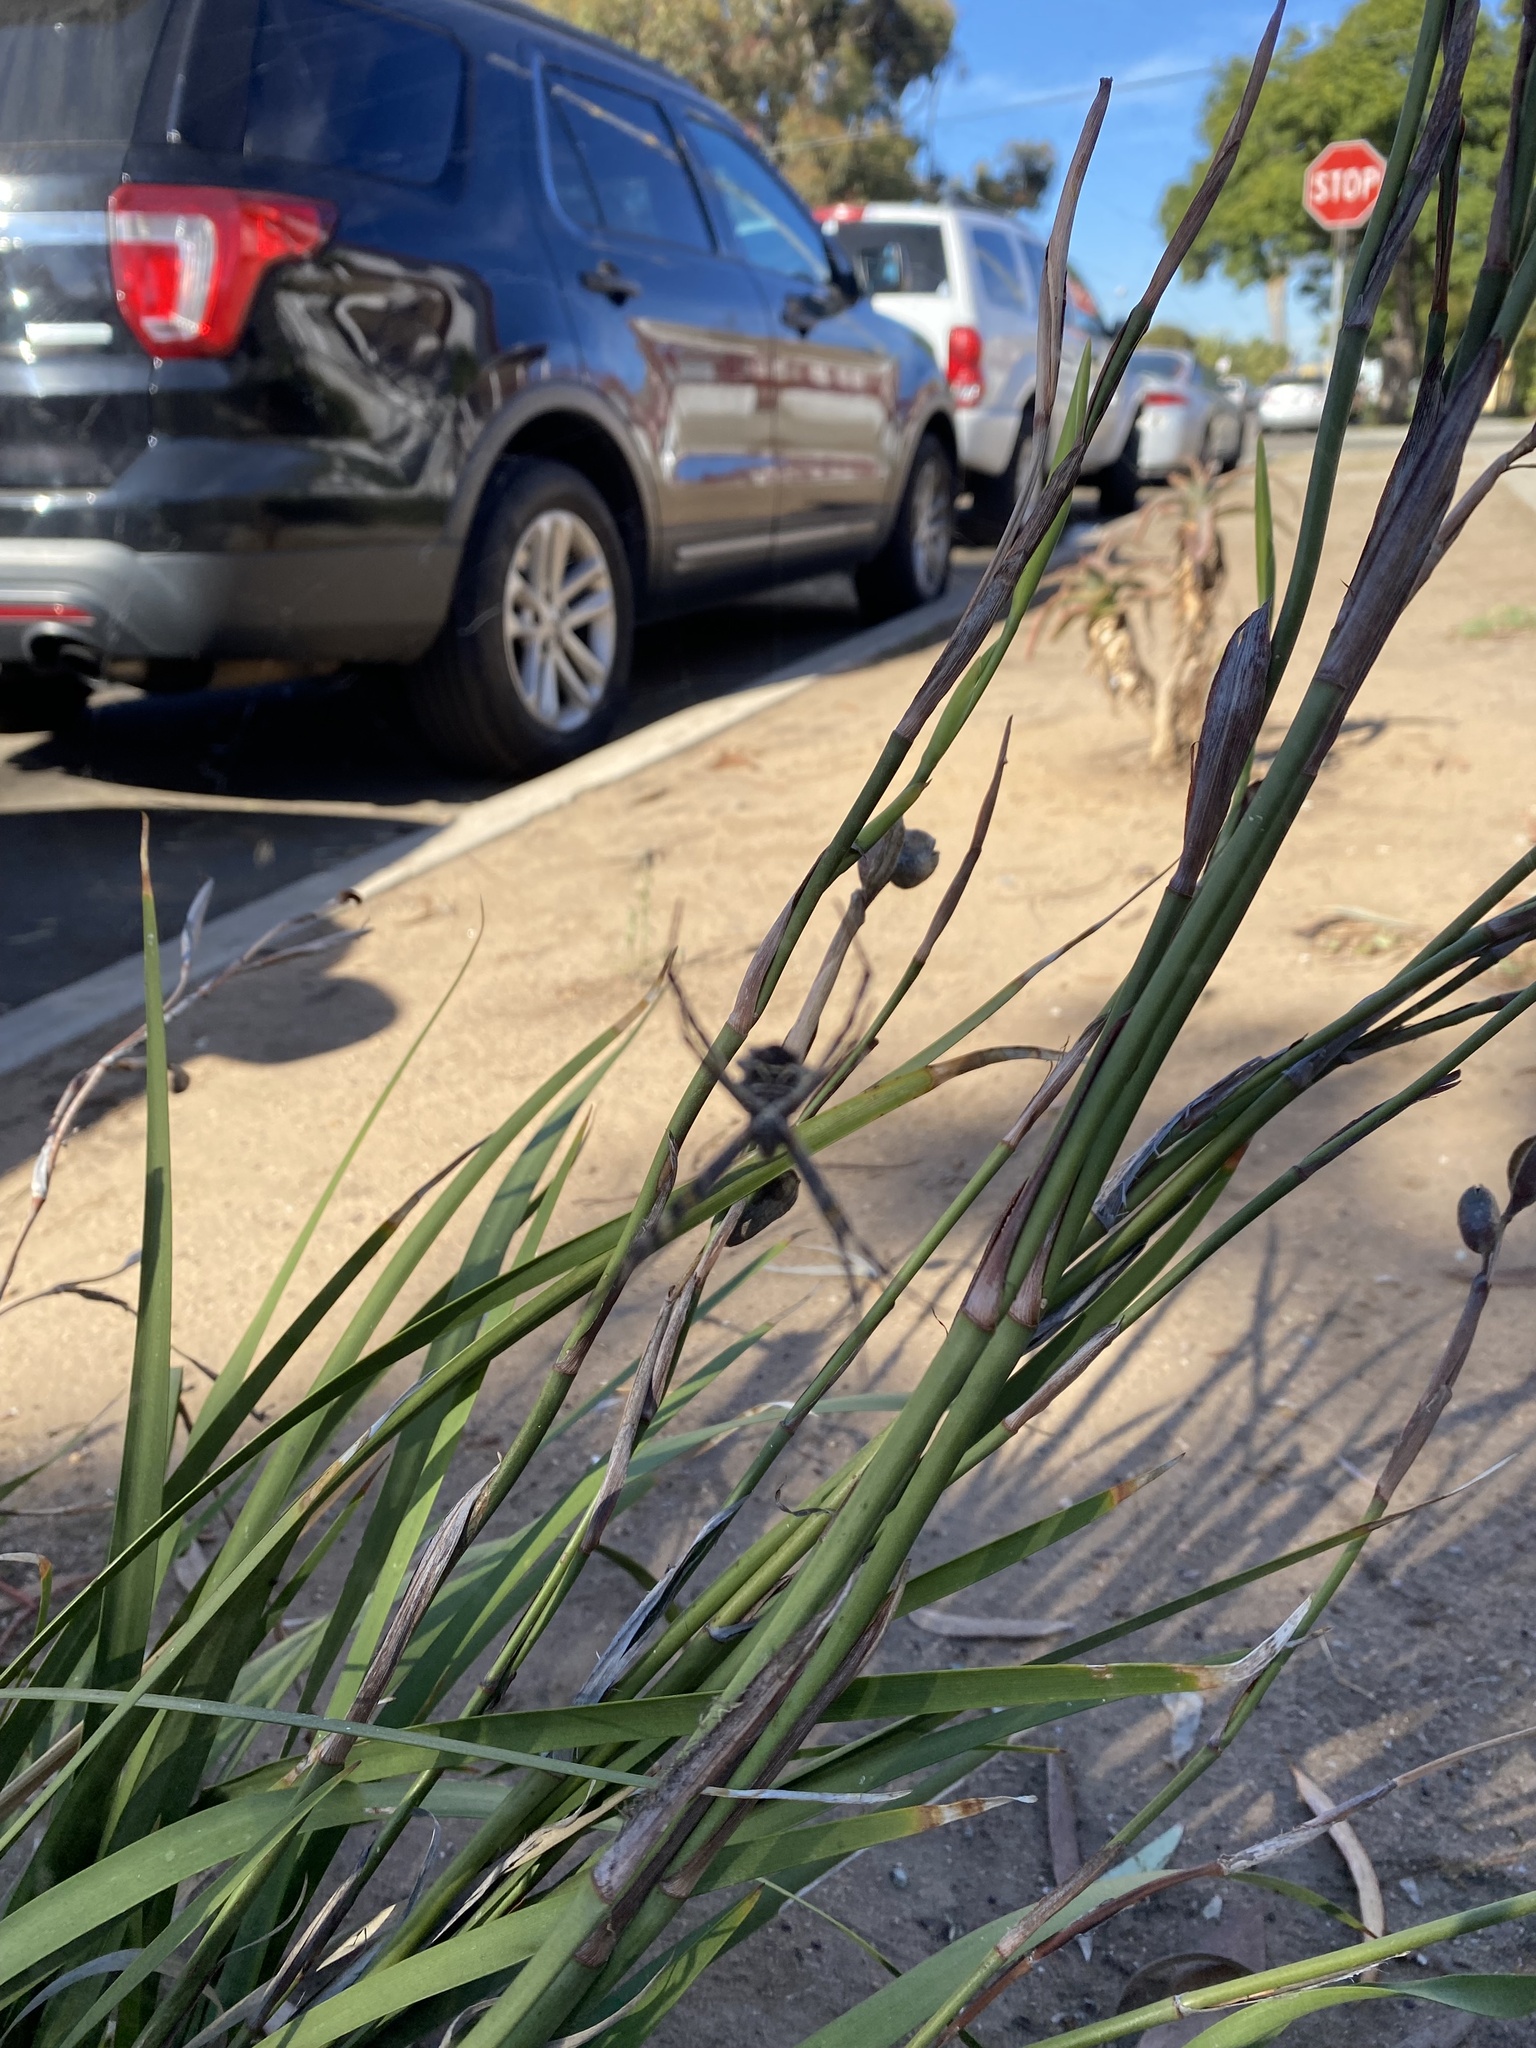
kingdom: Animalia
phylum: Arthropoda
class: Arachnida
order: Araneae
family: Araneidae
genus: Argiope
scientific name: Argiope argentata
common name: Orb weavers
